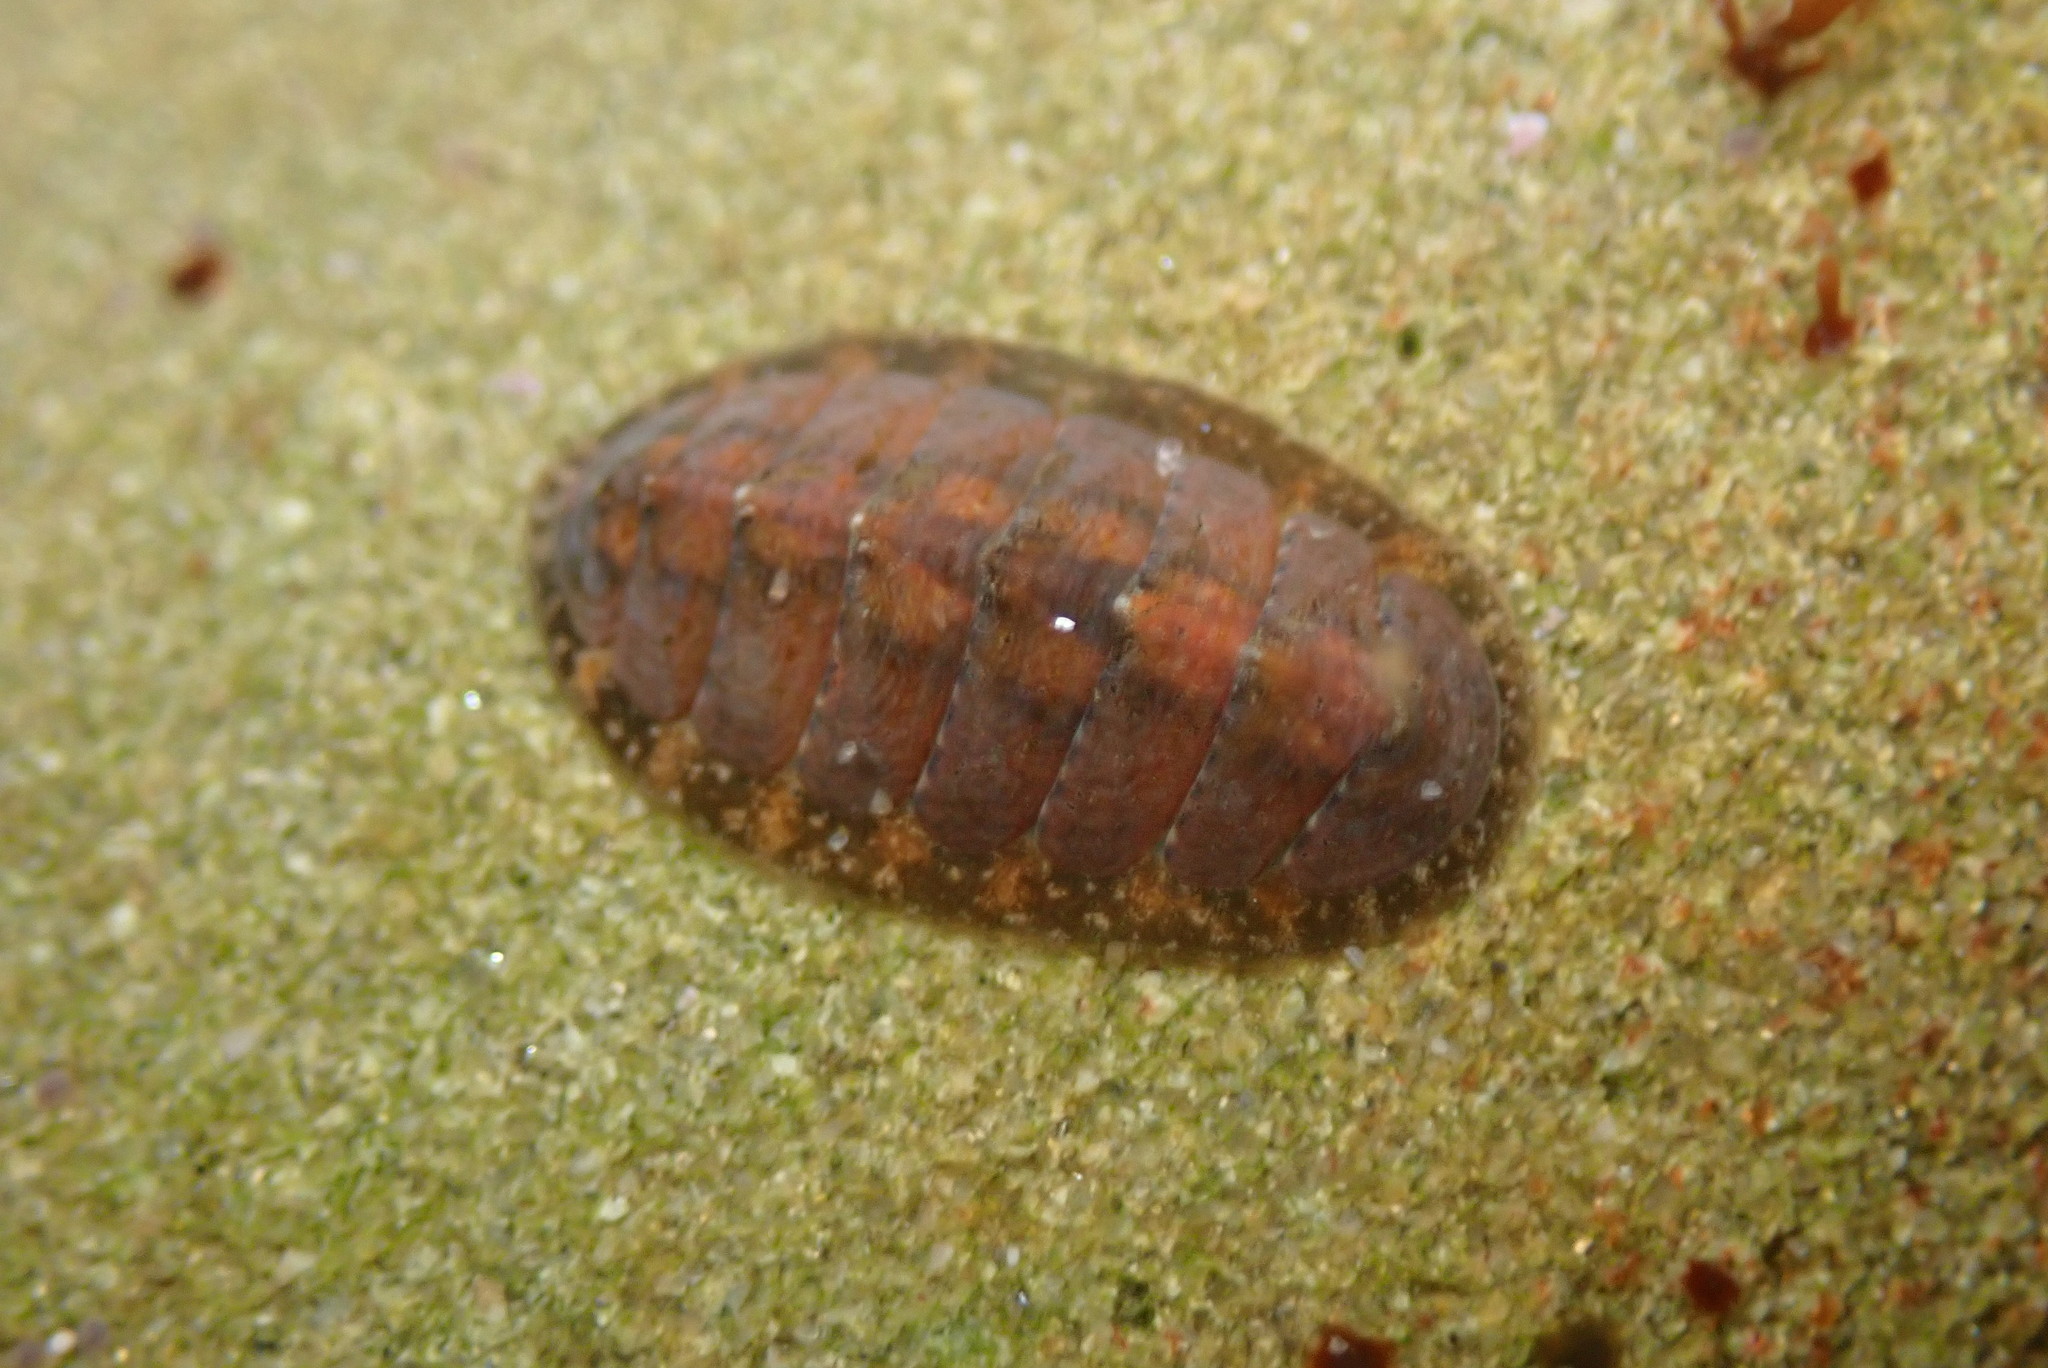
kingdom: Animalia
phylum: Mollusca
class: Polyplacophora
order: Chitonida
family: Tonicellidae
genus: Cyanoplax
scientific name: Cyanoplax keepiana
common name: Keep's chiton
